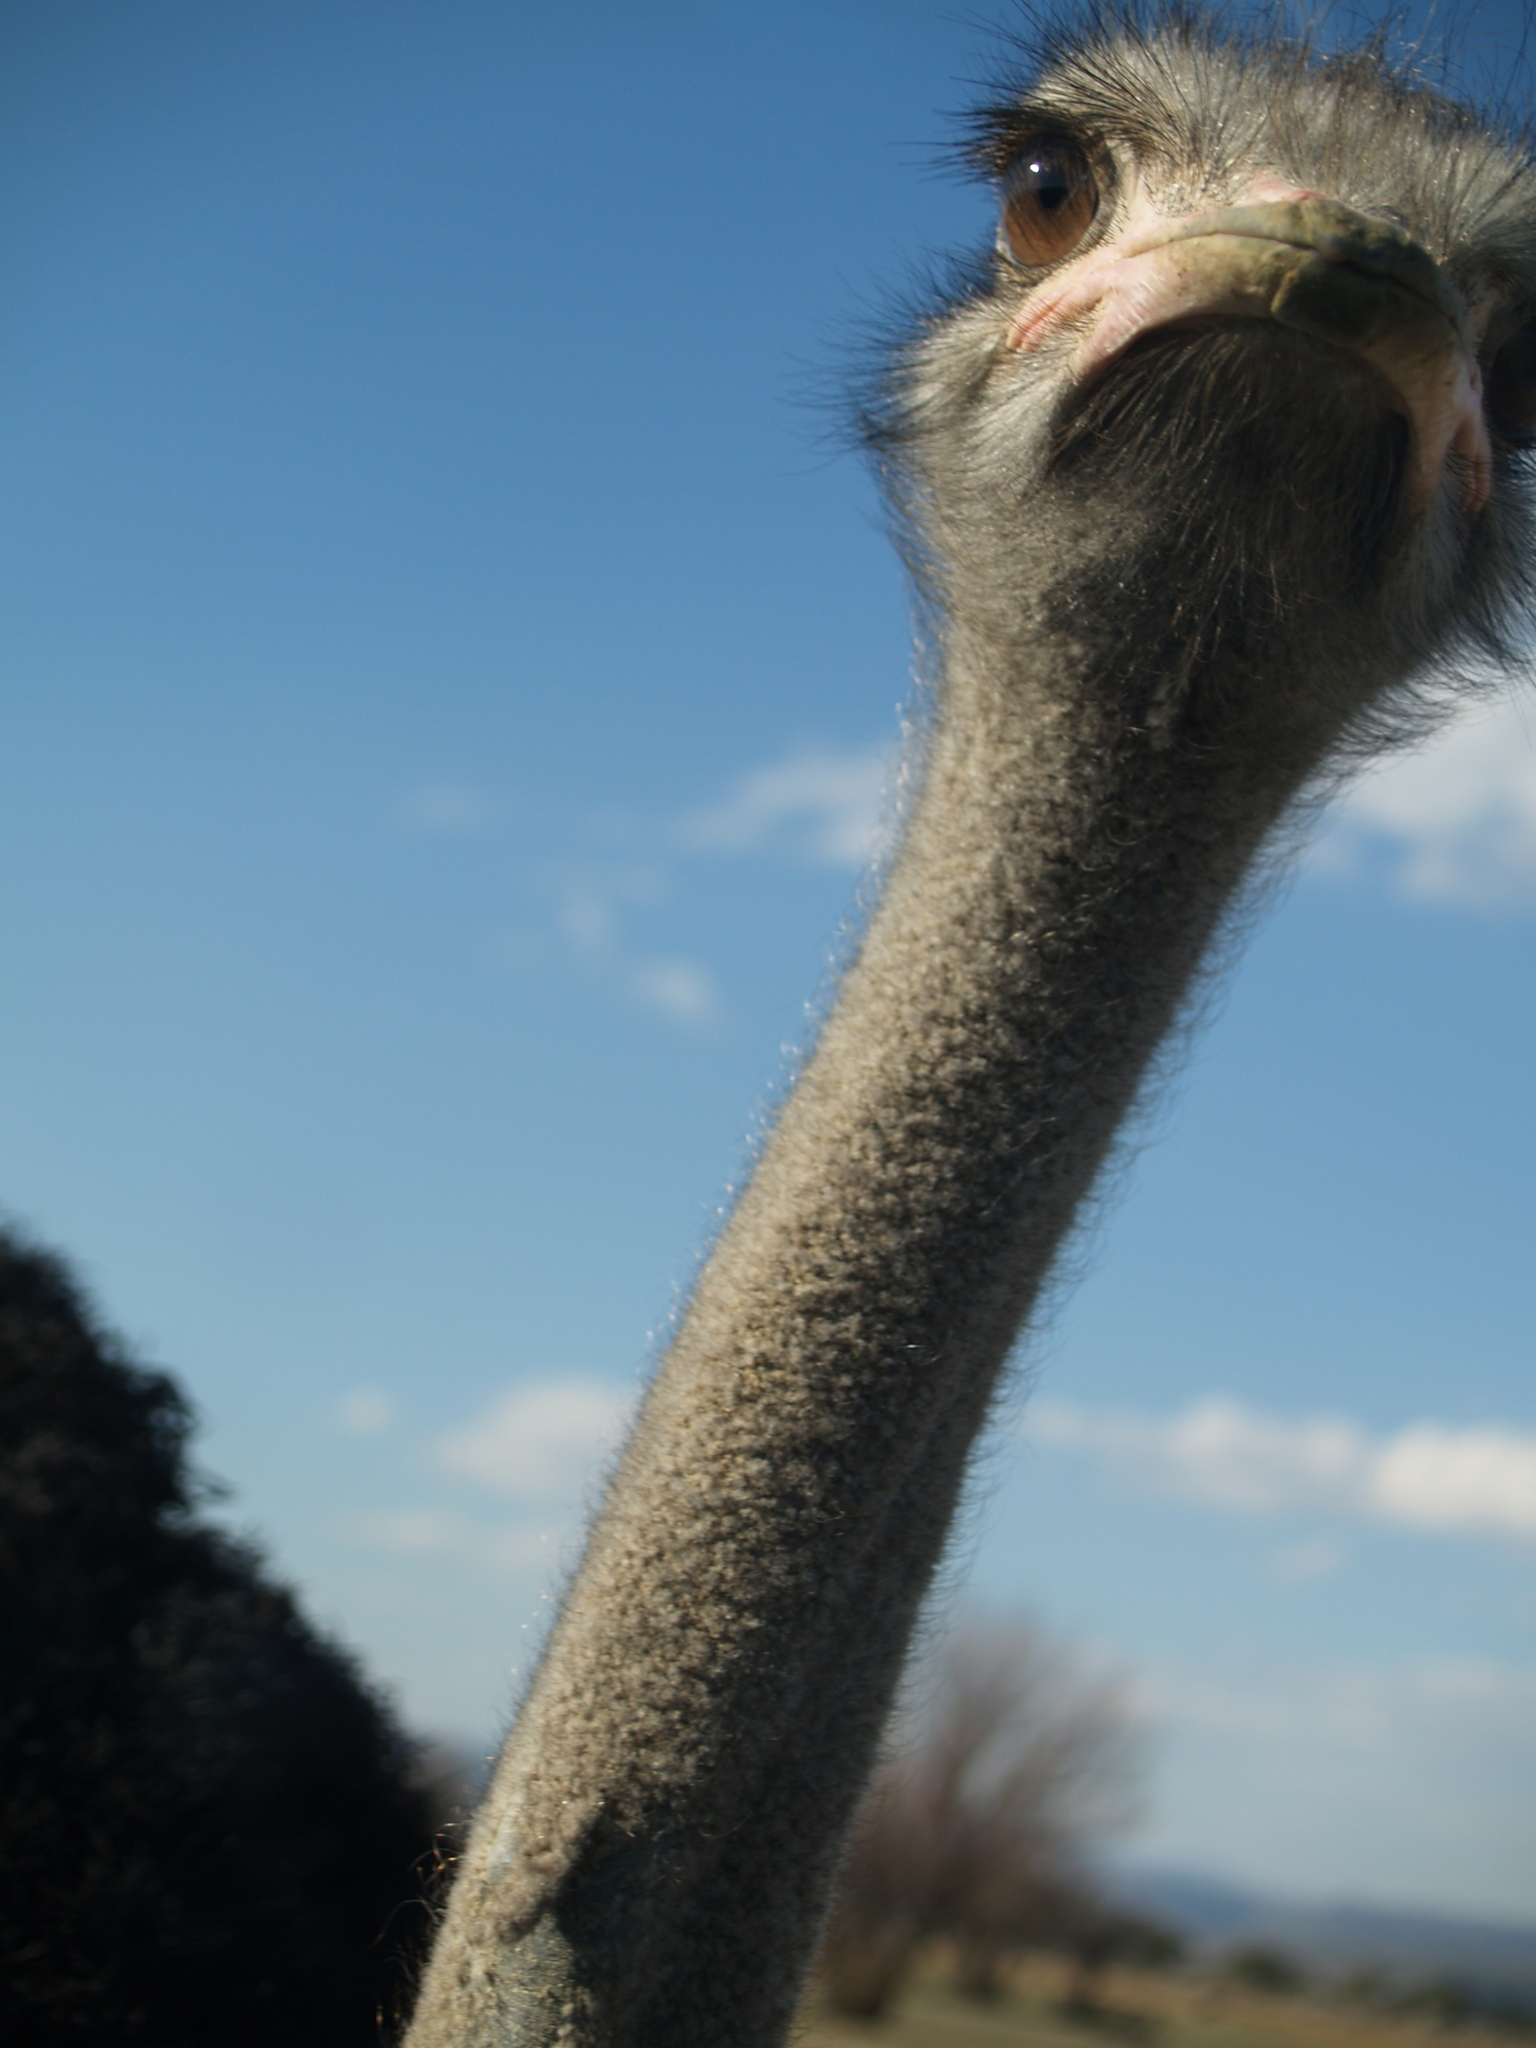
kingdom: Animalia
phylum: Chordata
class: Aves
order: Struthioniformes
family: Struthionidae
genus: Struthio
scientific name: Struthio camelus
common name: Common ostrich
